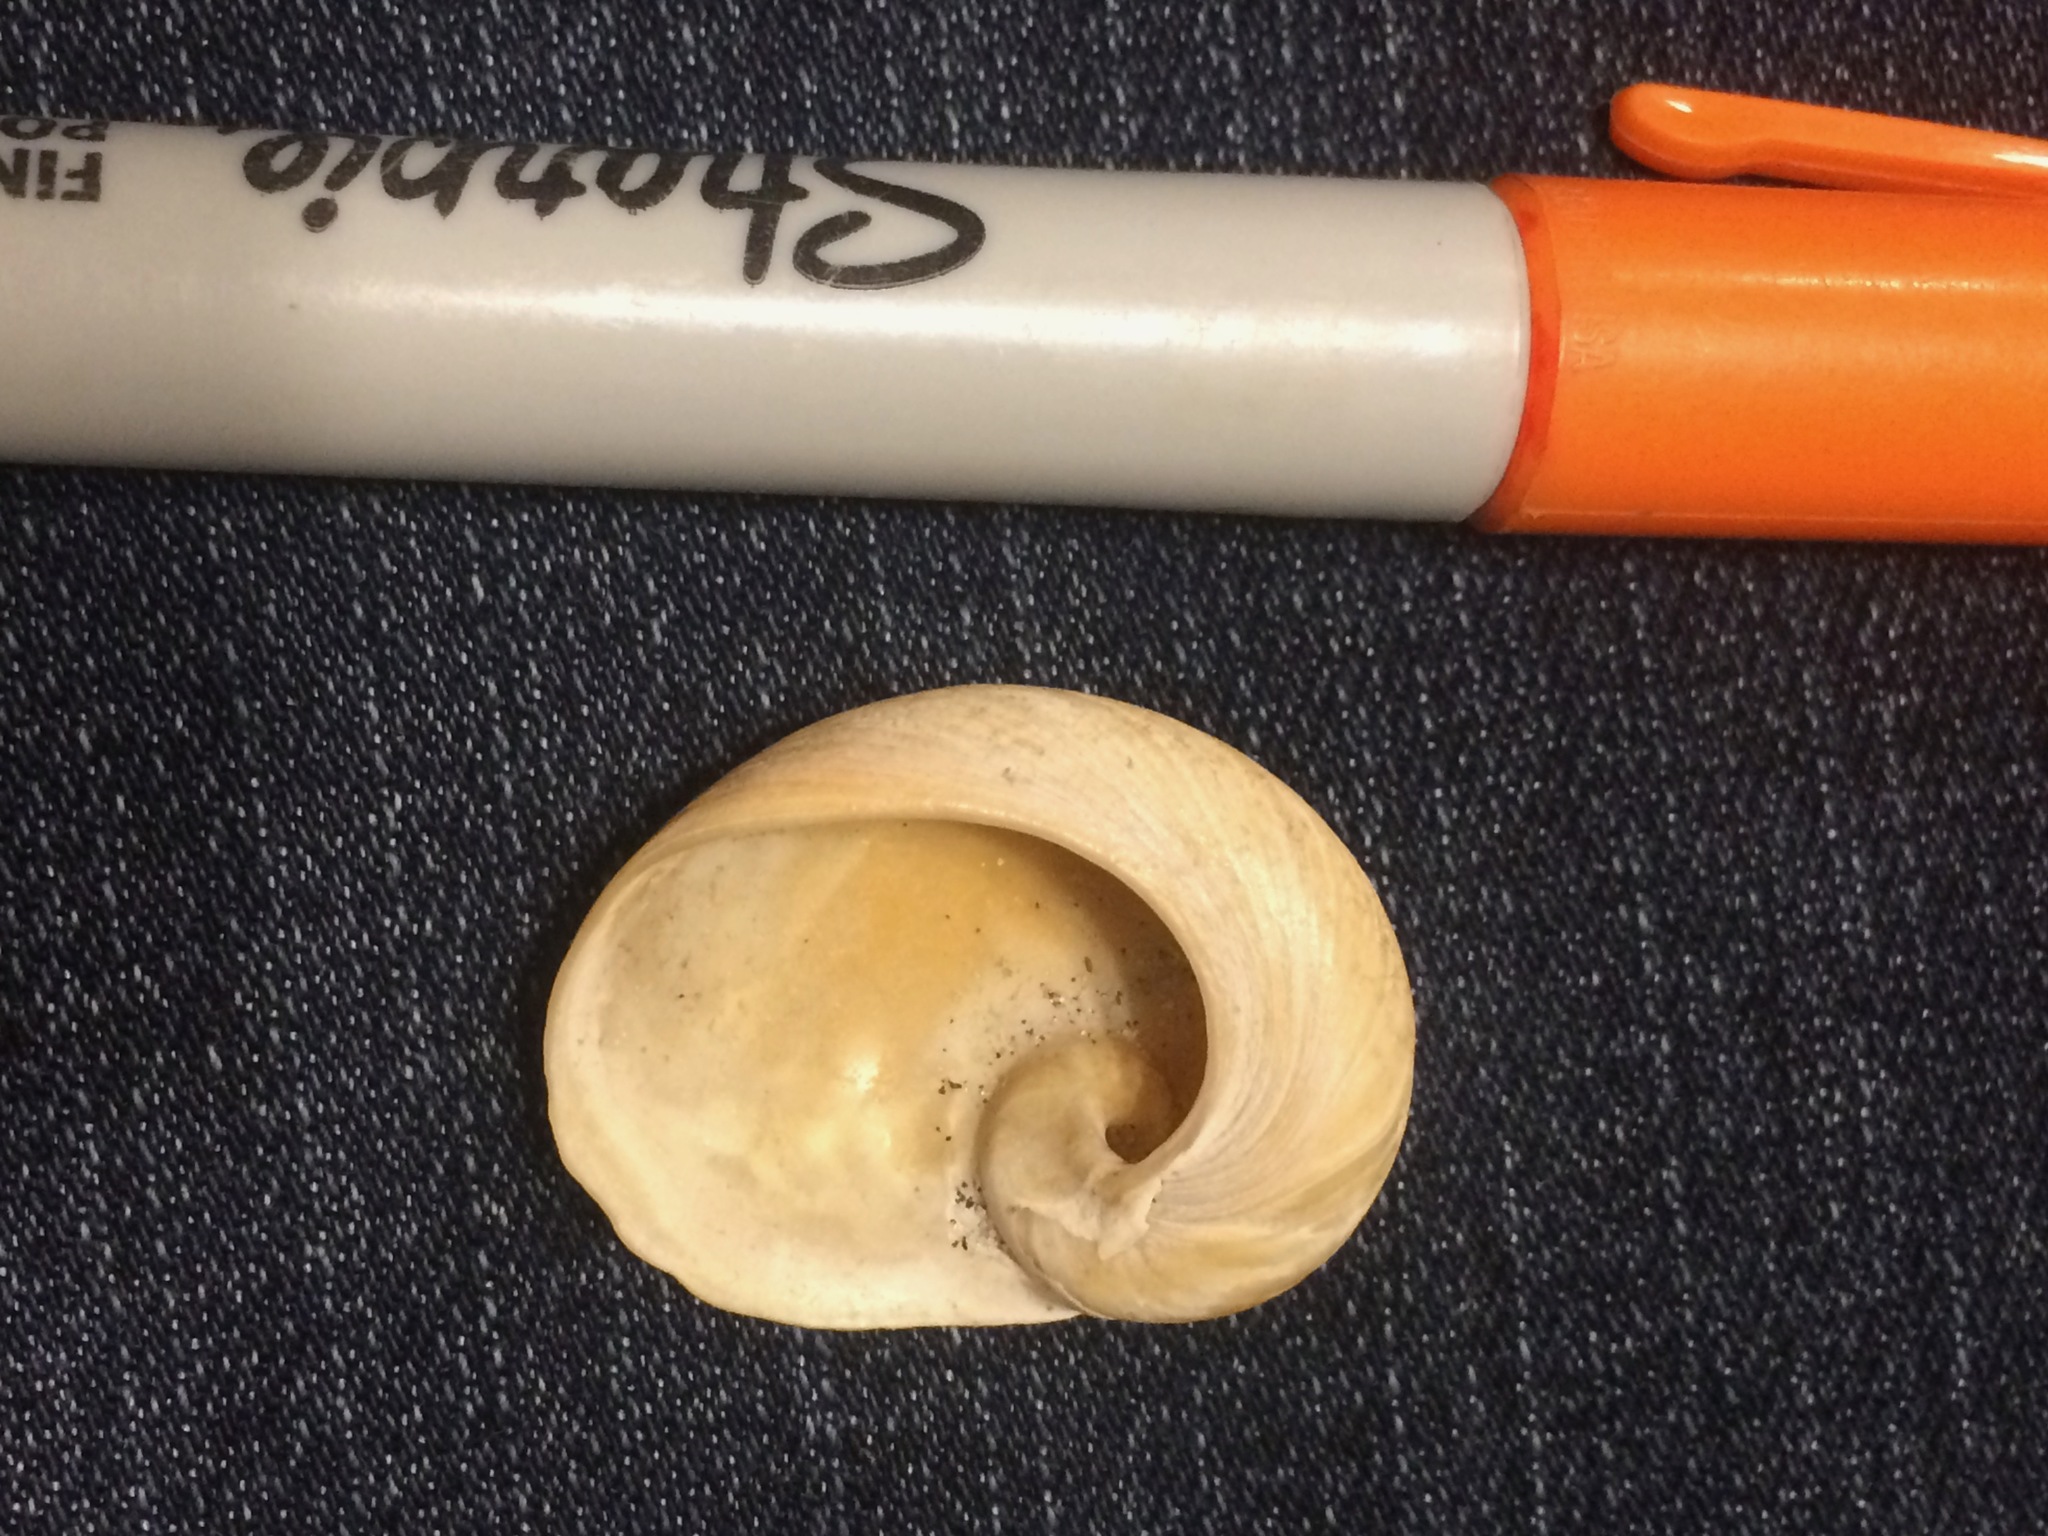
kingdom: Animalia
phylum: Mollusca
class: Gastropoda
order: Littorinimorpha
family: Naticidae
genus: Sinum
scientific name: Sinum perspectivum
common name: White baby ear
